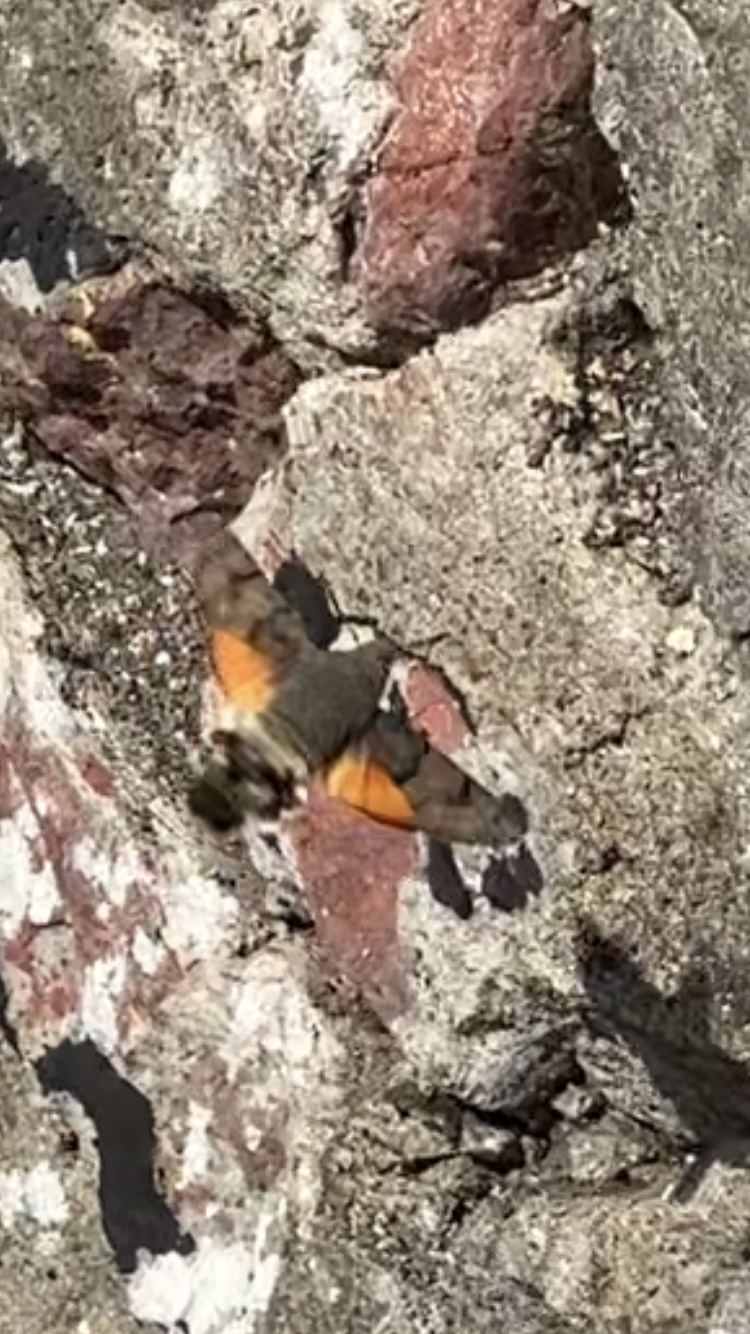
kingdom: Animalia
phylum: Arthropoda
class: Insecta
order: Lepidoptera
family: Sphingidae
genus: Macroglossum
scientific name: Macroglossum stellatarum
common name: Humming-bird hawk-moth
